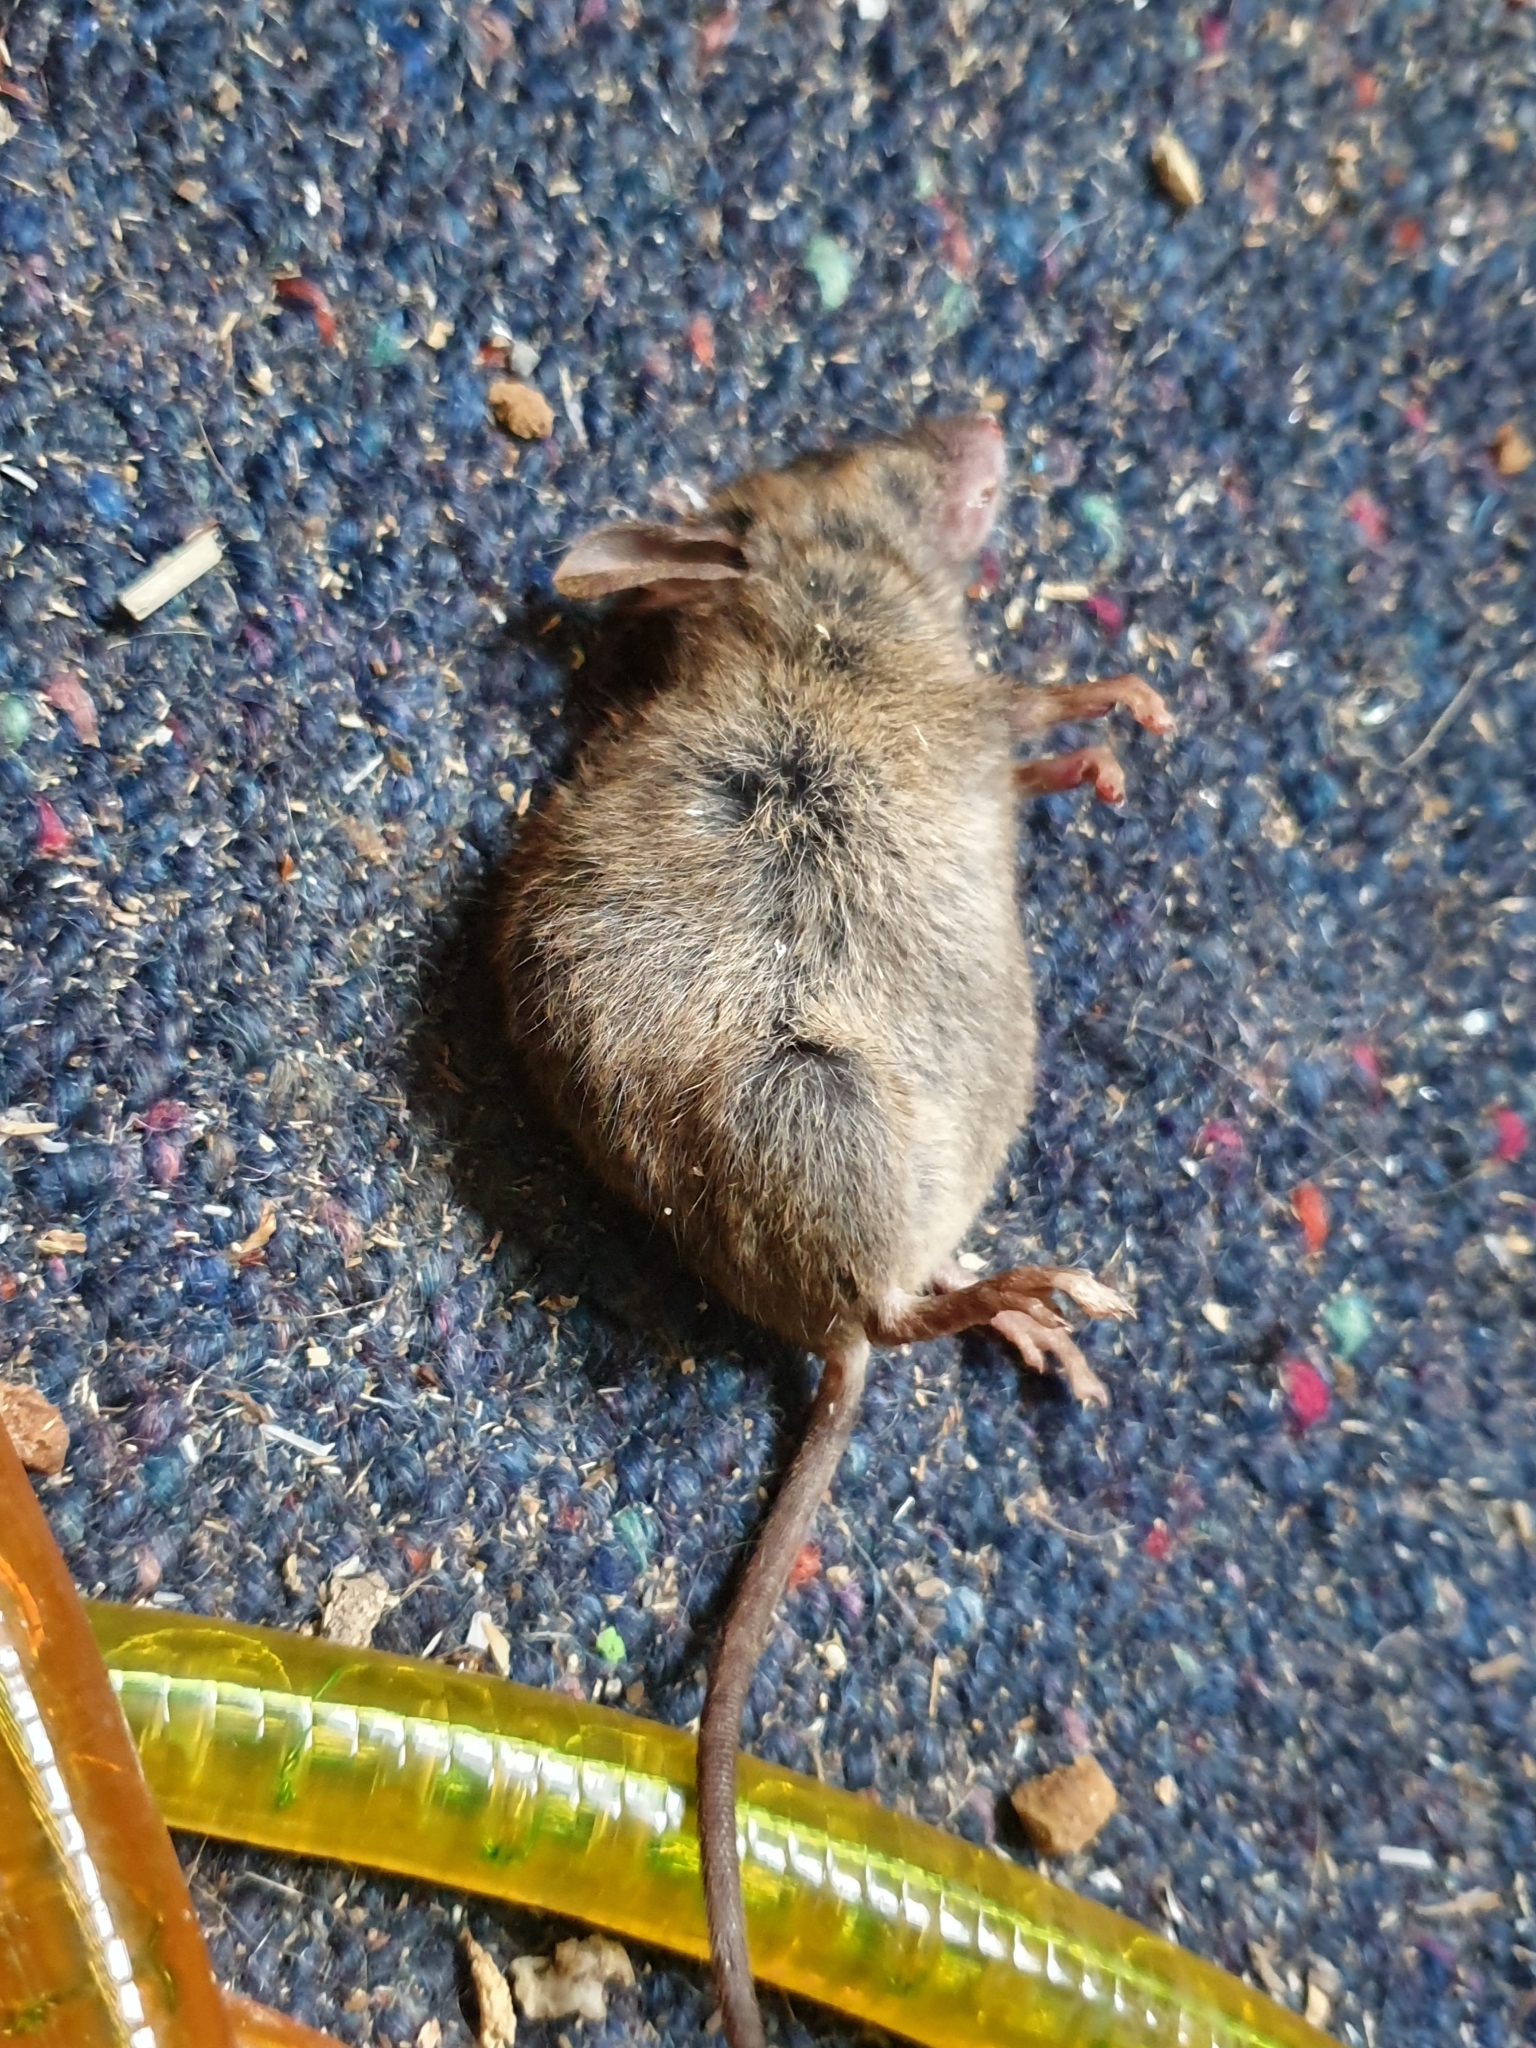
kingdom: Animalia
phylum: Chordata
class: Mammalia
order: Rodentia
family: Muridae
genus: Mus
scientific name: Mus musculus
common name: House mouse
